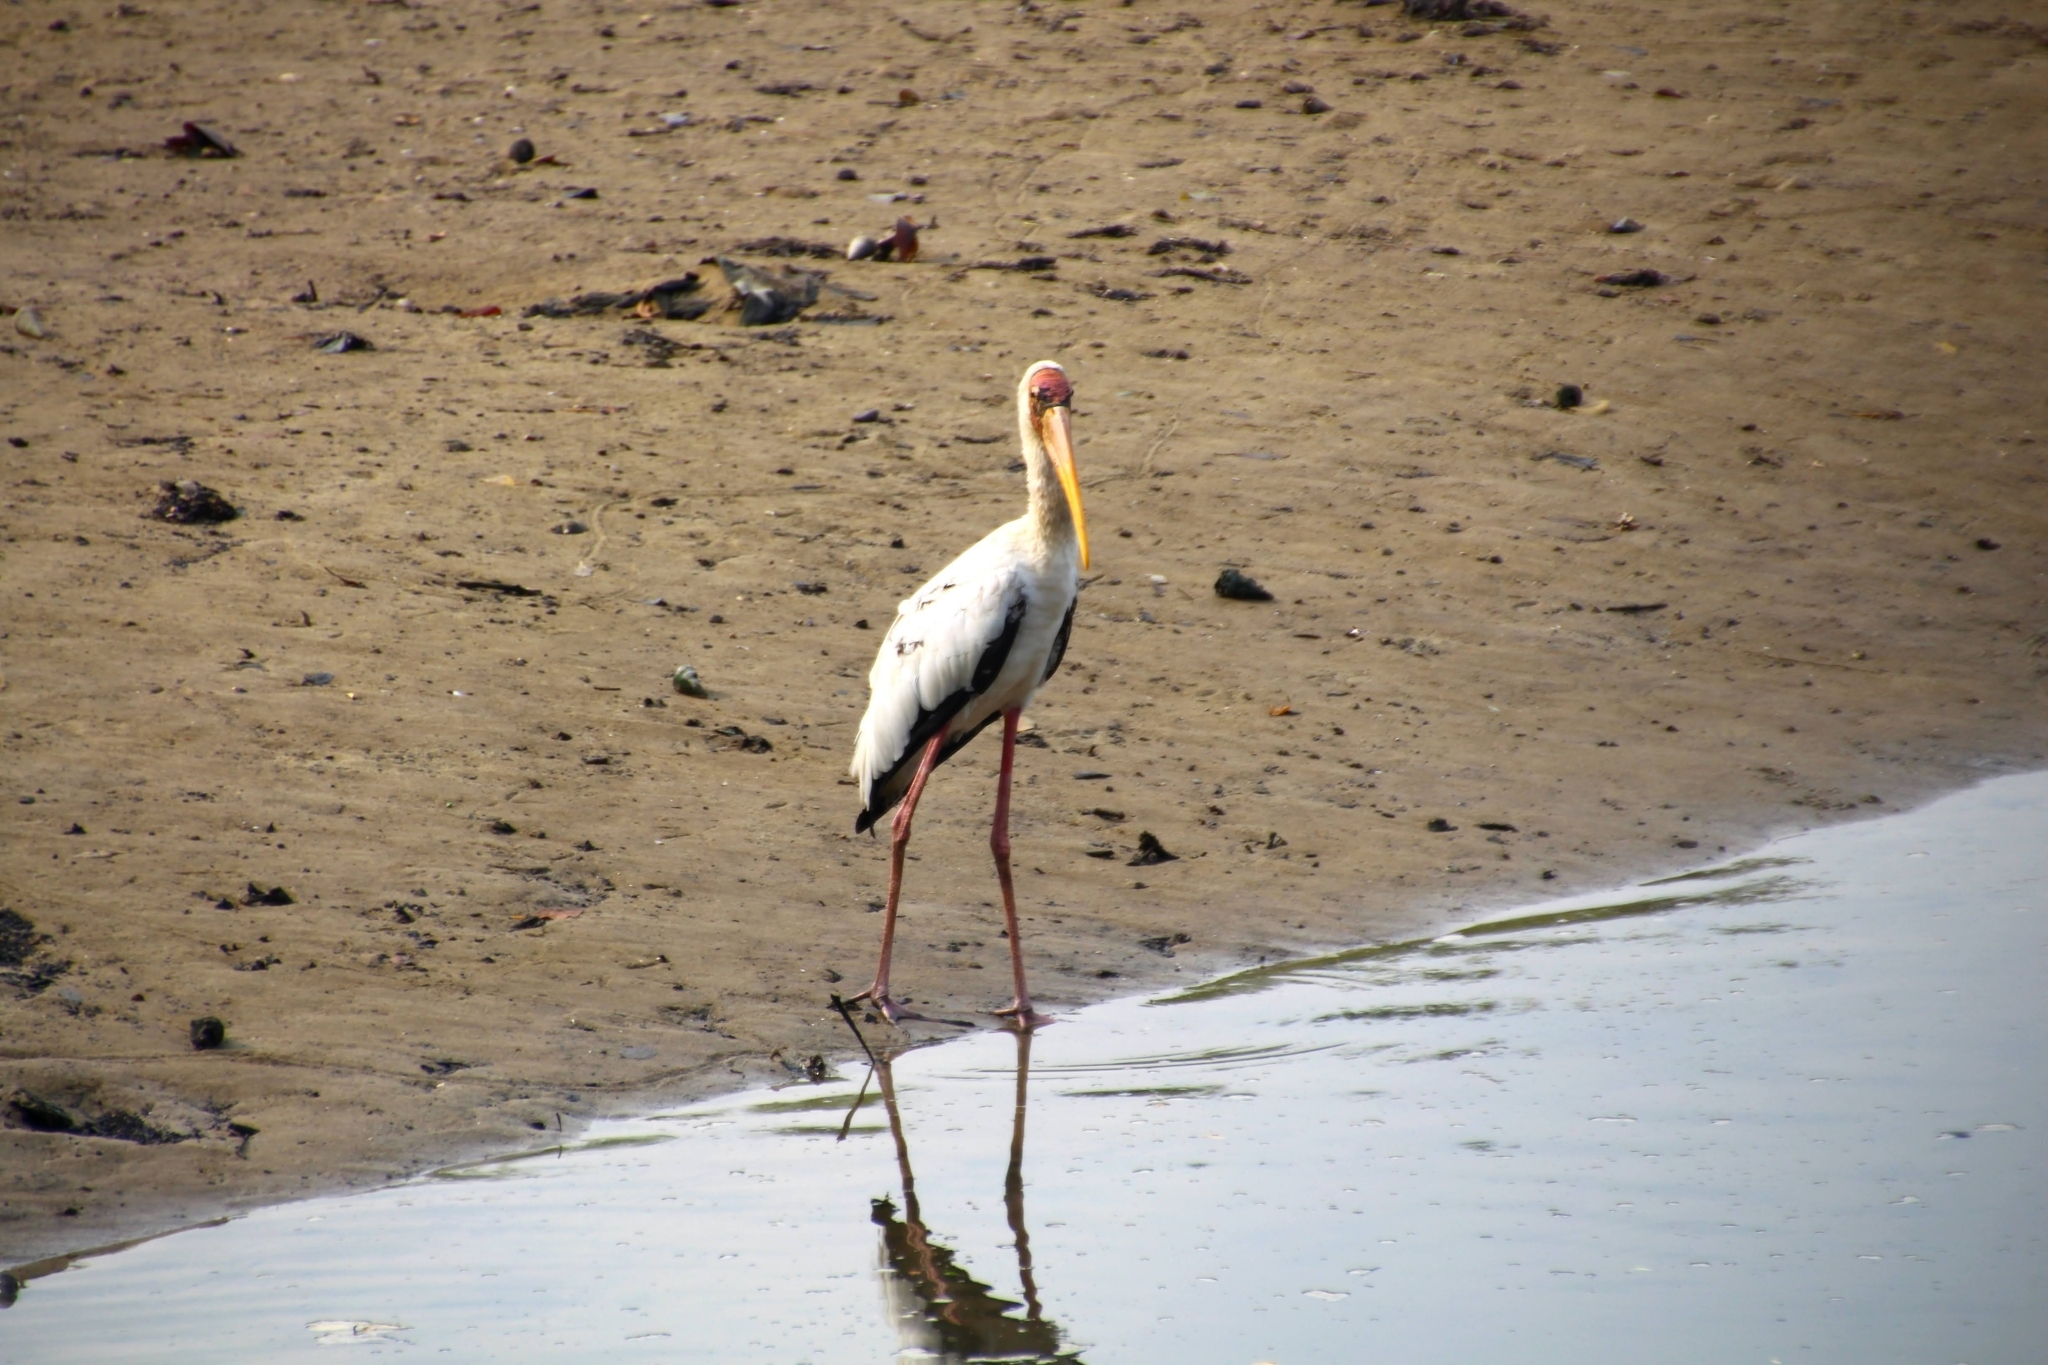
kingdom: Animalia
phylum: Chordata
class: Aves
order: Ciconiiformes
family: Ciconiidae
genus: Mycteria
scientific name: Mycteria
